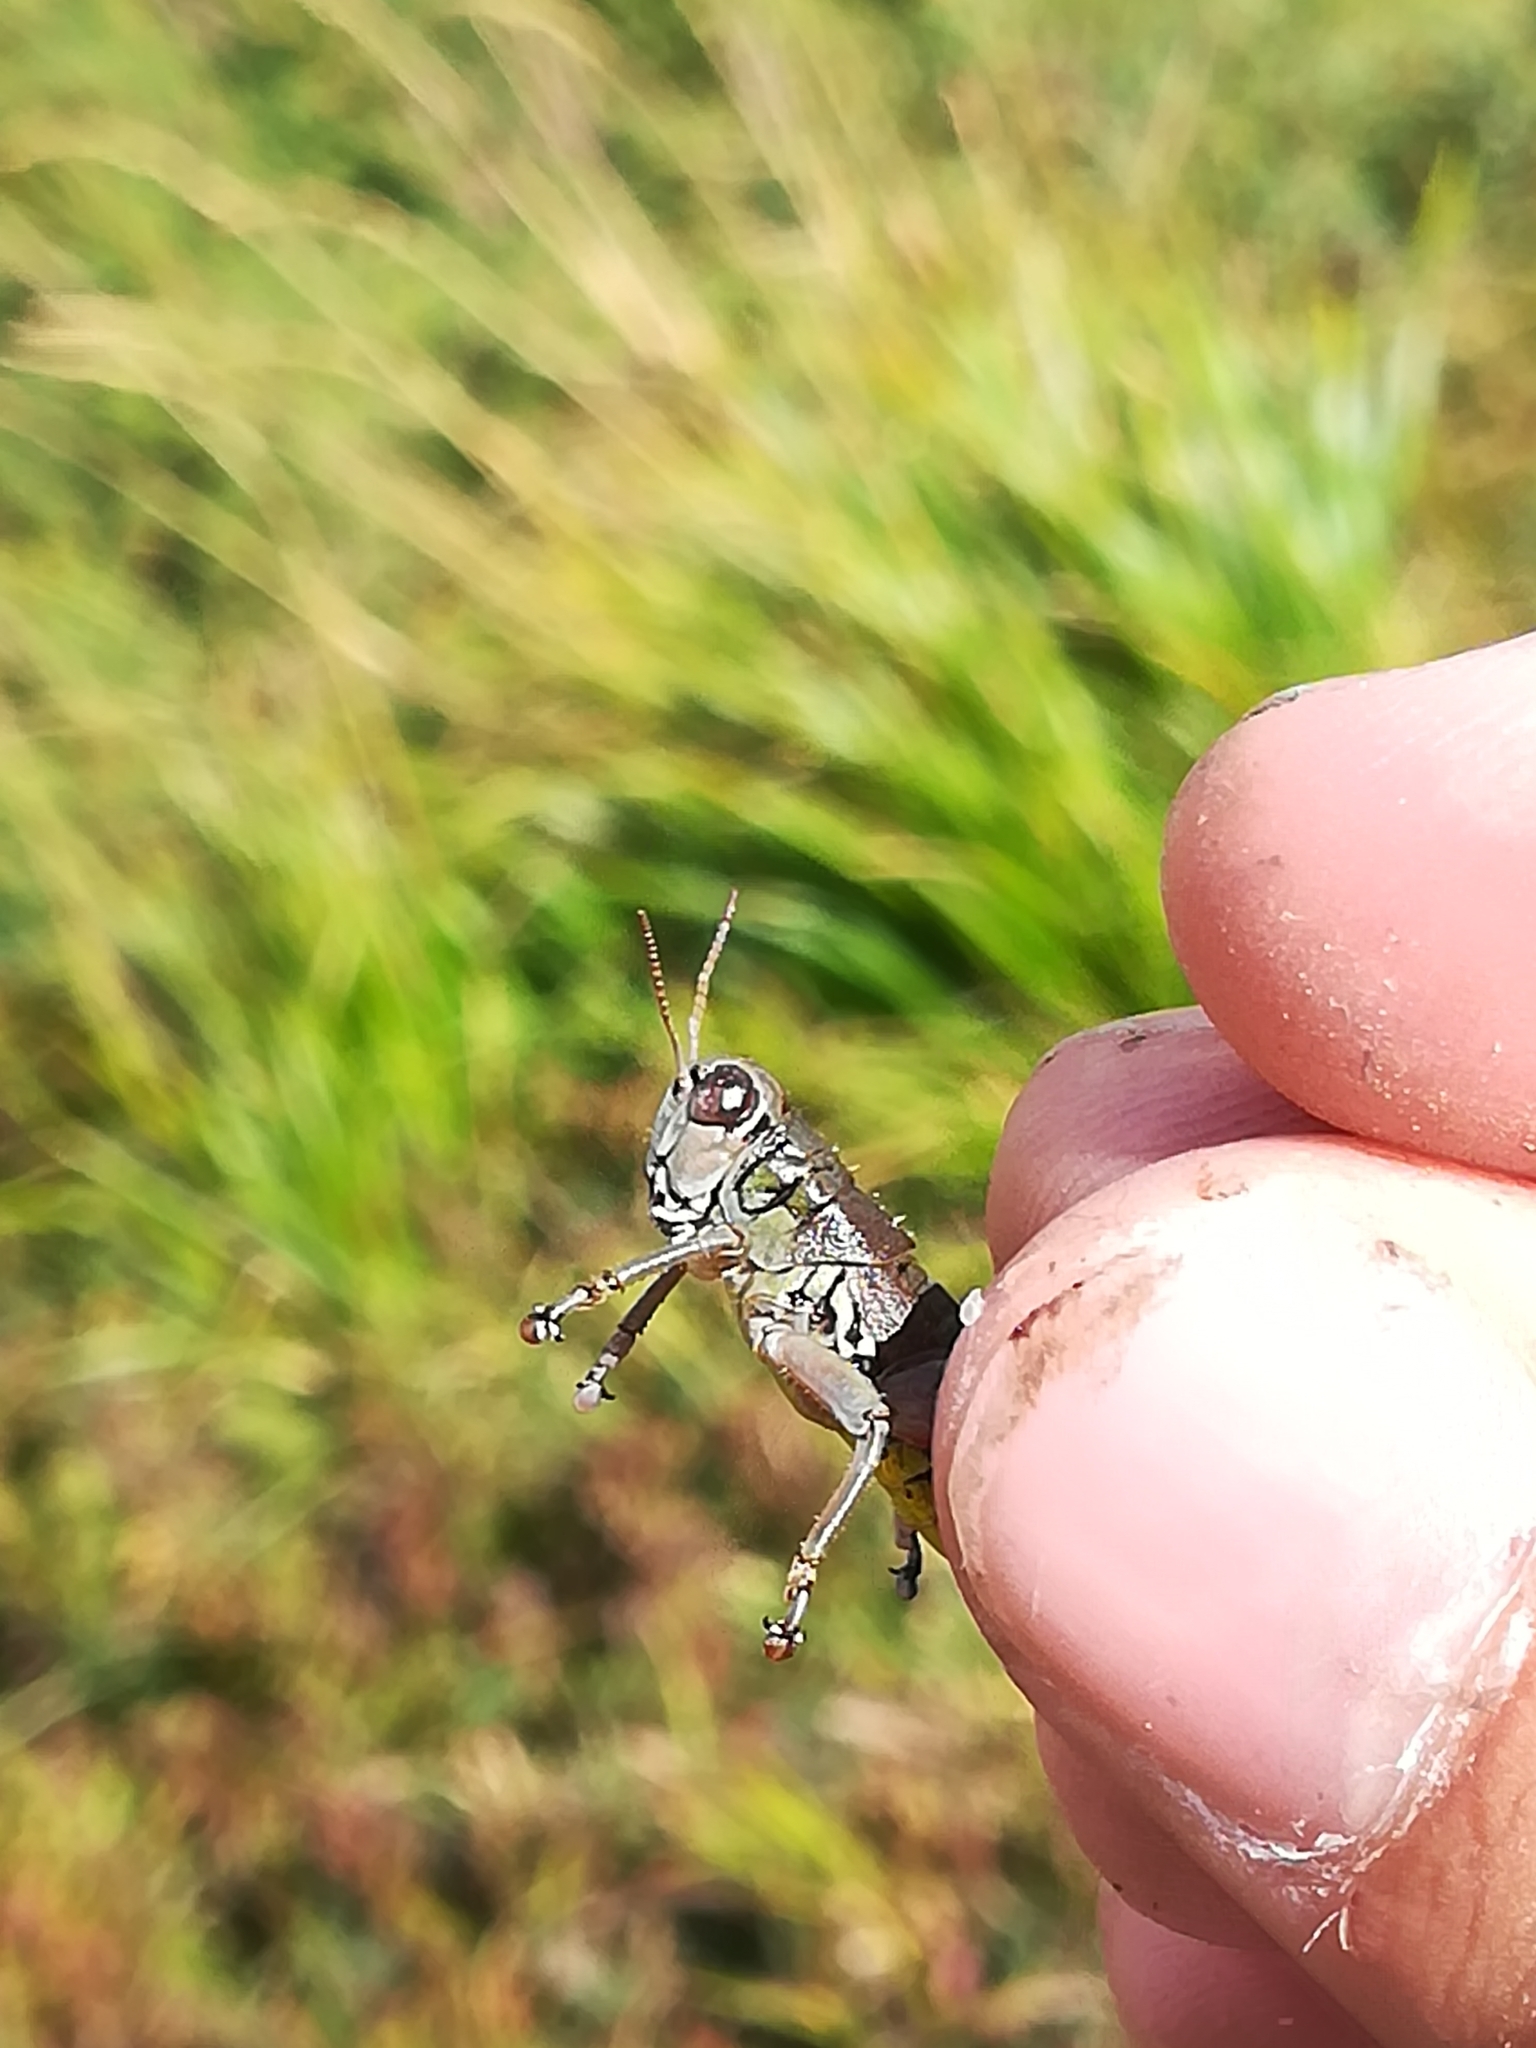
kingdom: Animalia
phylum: Arthropoda
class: Insecta
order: Orthoptera
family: Acrididae
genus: Podisma
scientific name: Podisma emiliae
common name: Emilia mountain grasshopper
